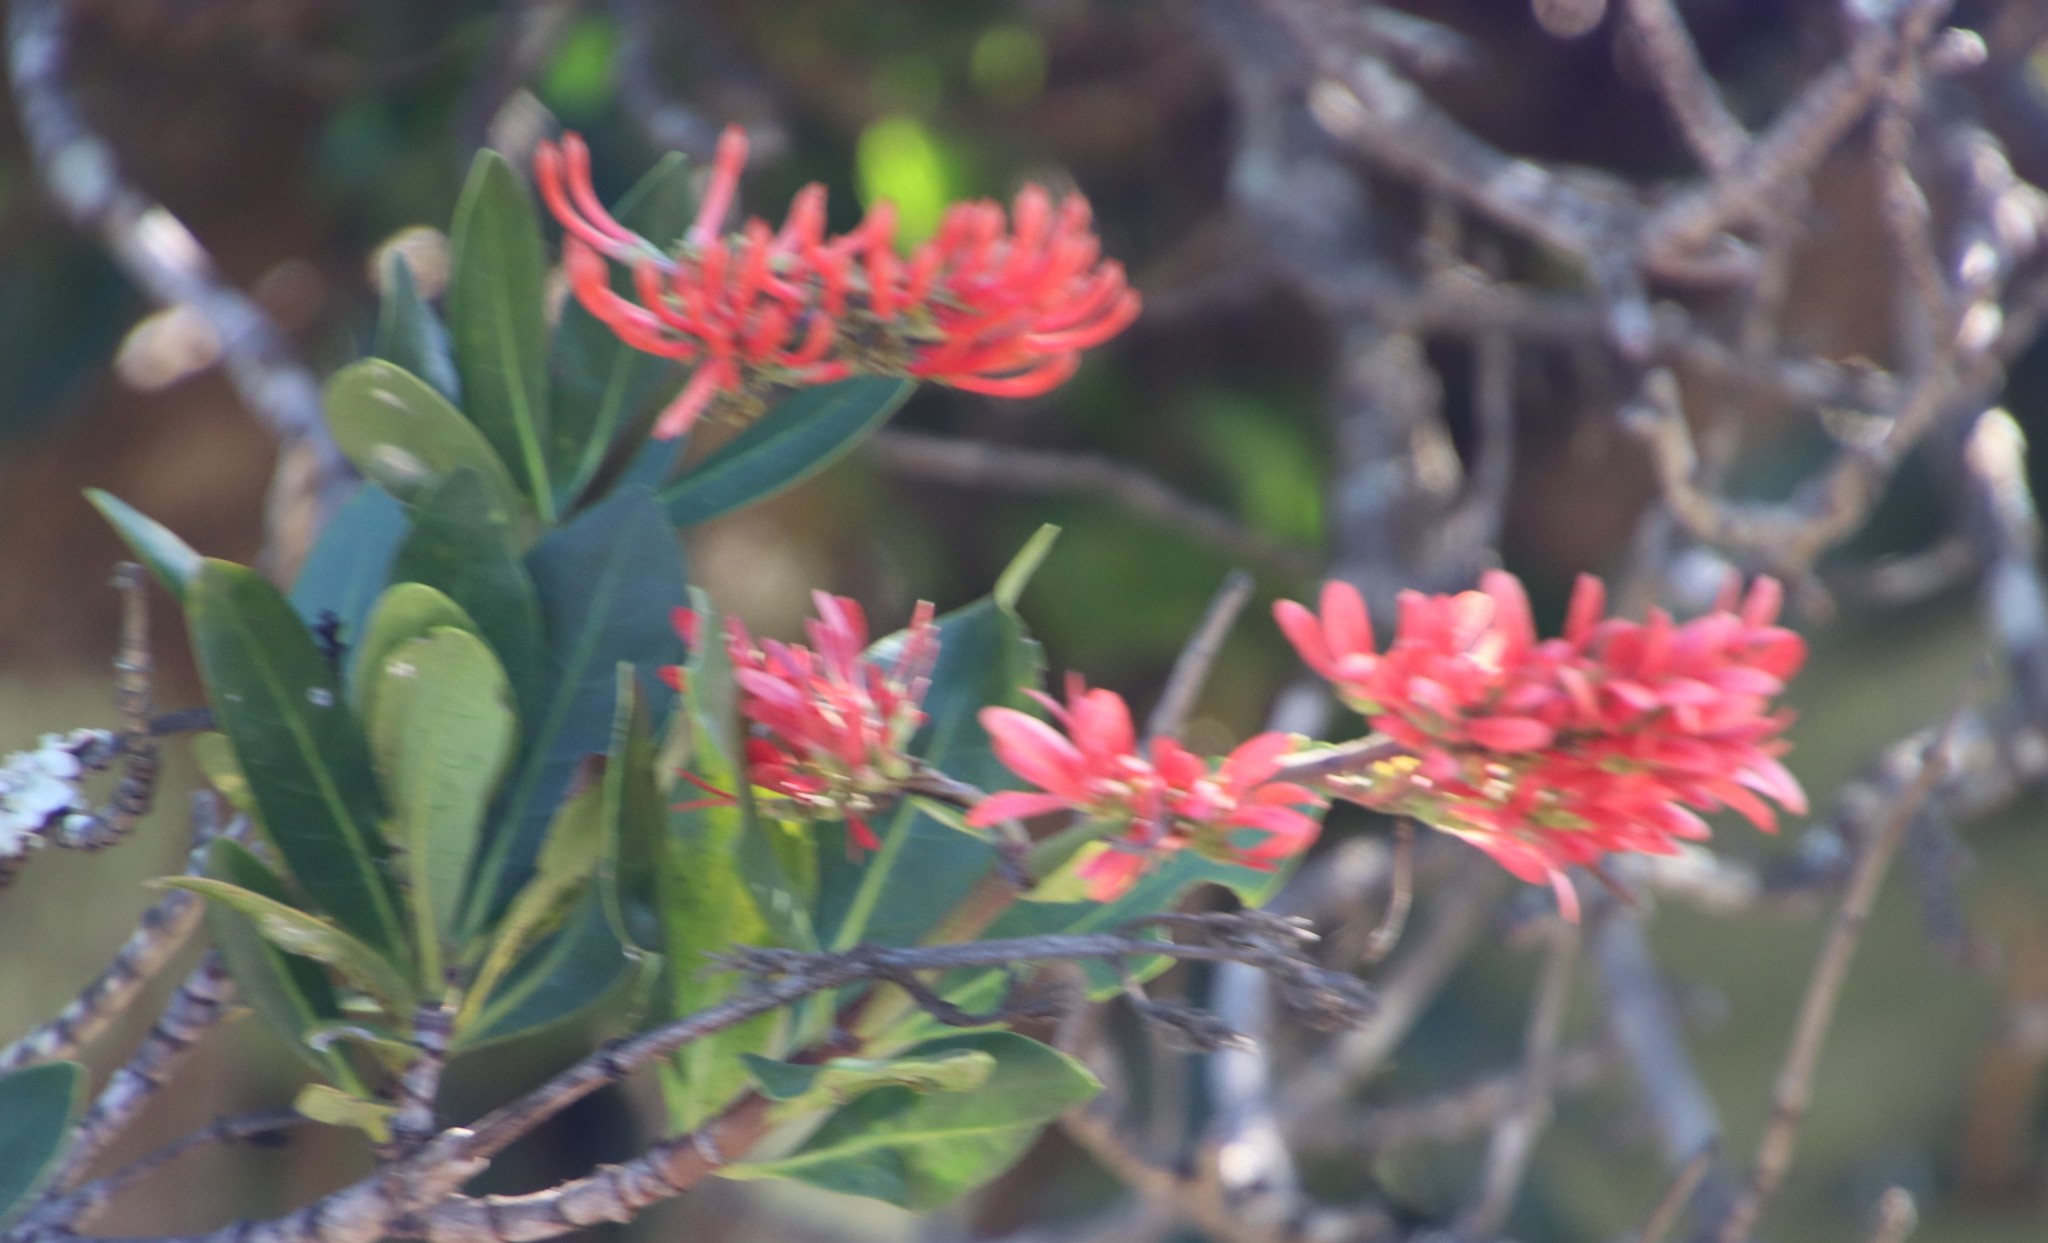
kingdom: Plantae
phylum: Tracheophyta
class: Magnoliopsida
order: Gentianales
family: Rubiaceae
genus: Alberta
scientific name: Alberta magna
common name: Magnificent-flame
